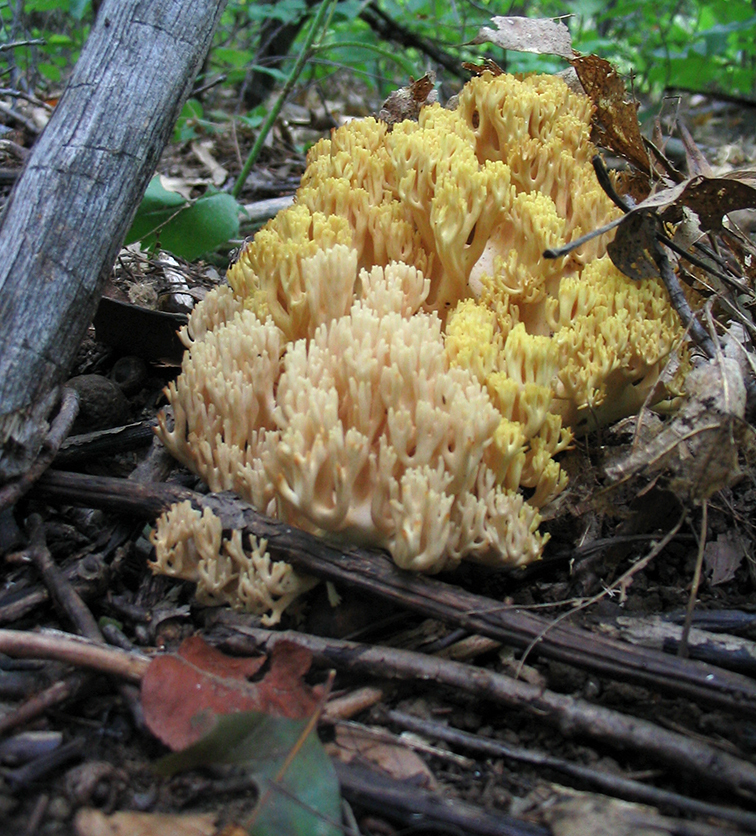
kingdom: Fungi
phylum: Basidiomycota
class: Agaricomycetes
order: Gomphales
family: Gomphaceae
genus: Ramaria
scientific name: Ramaria
